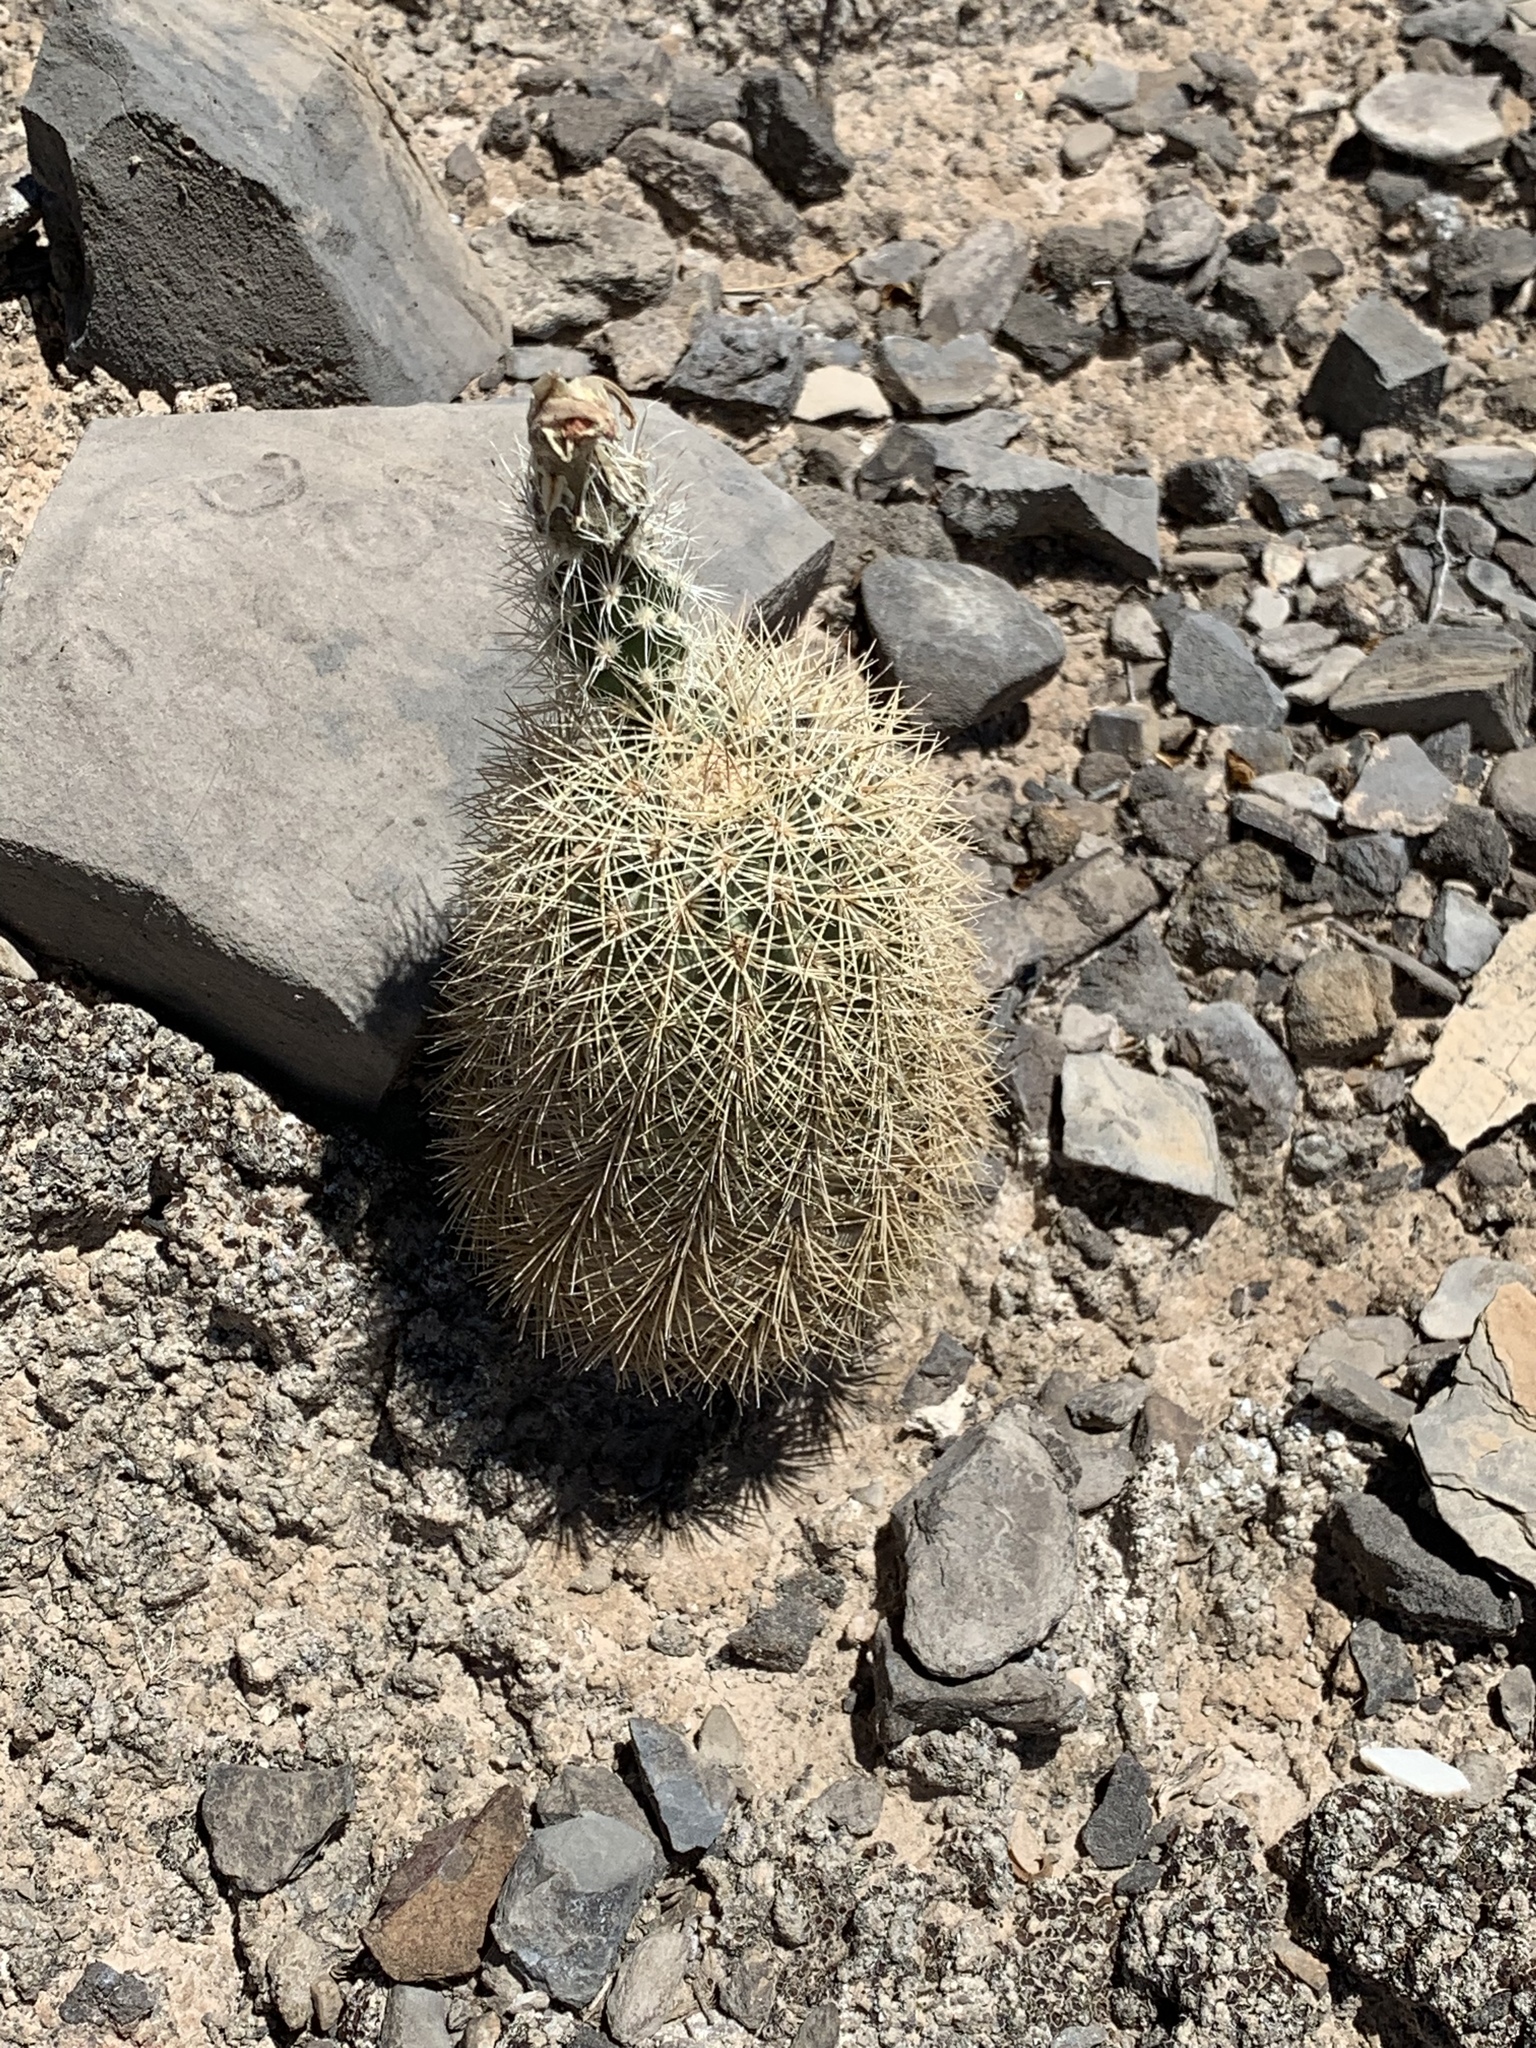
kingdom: Plantae
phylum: Tracheophyta
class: Magnoliopsida
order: Caryophyllales
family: Cactaceae
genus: Echinocereus
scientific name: Echinocereus dasyacanthus
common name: Spiny hedgehog cactus
